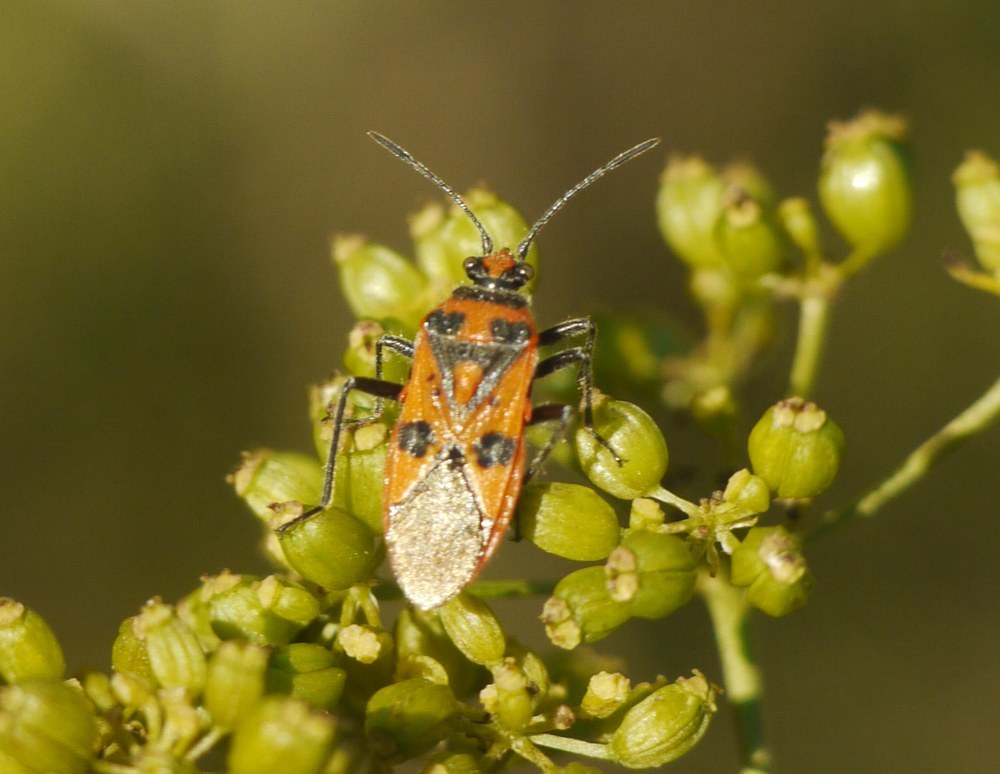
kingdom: Animalia
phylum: Arthropoda
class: Insecta
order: Hemiptera
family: Rhopalidae
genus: Corizus
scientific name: Corizus hyoscyami
